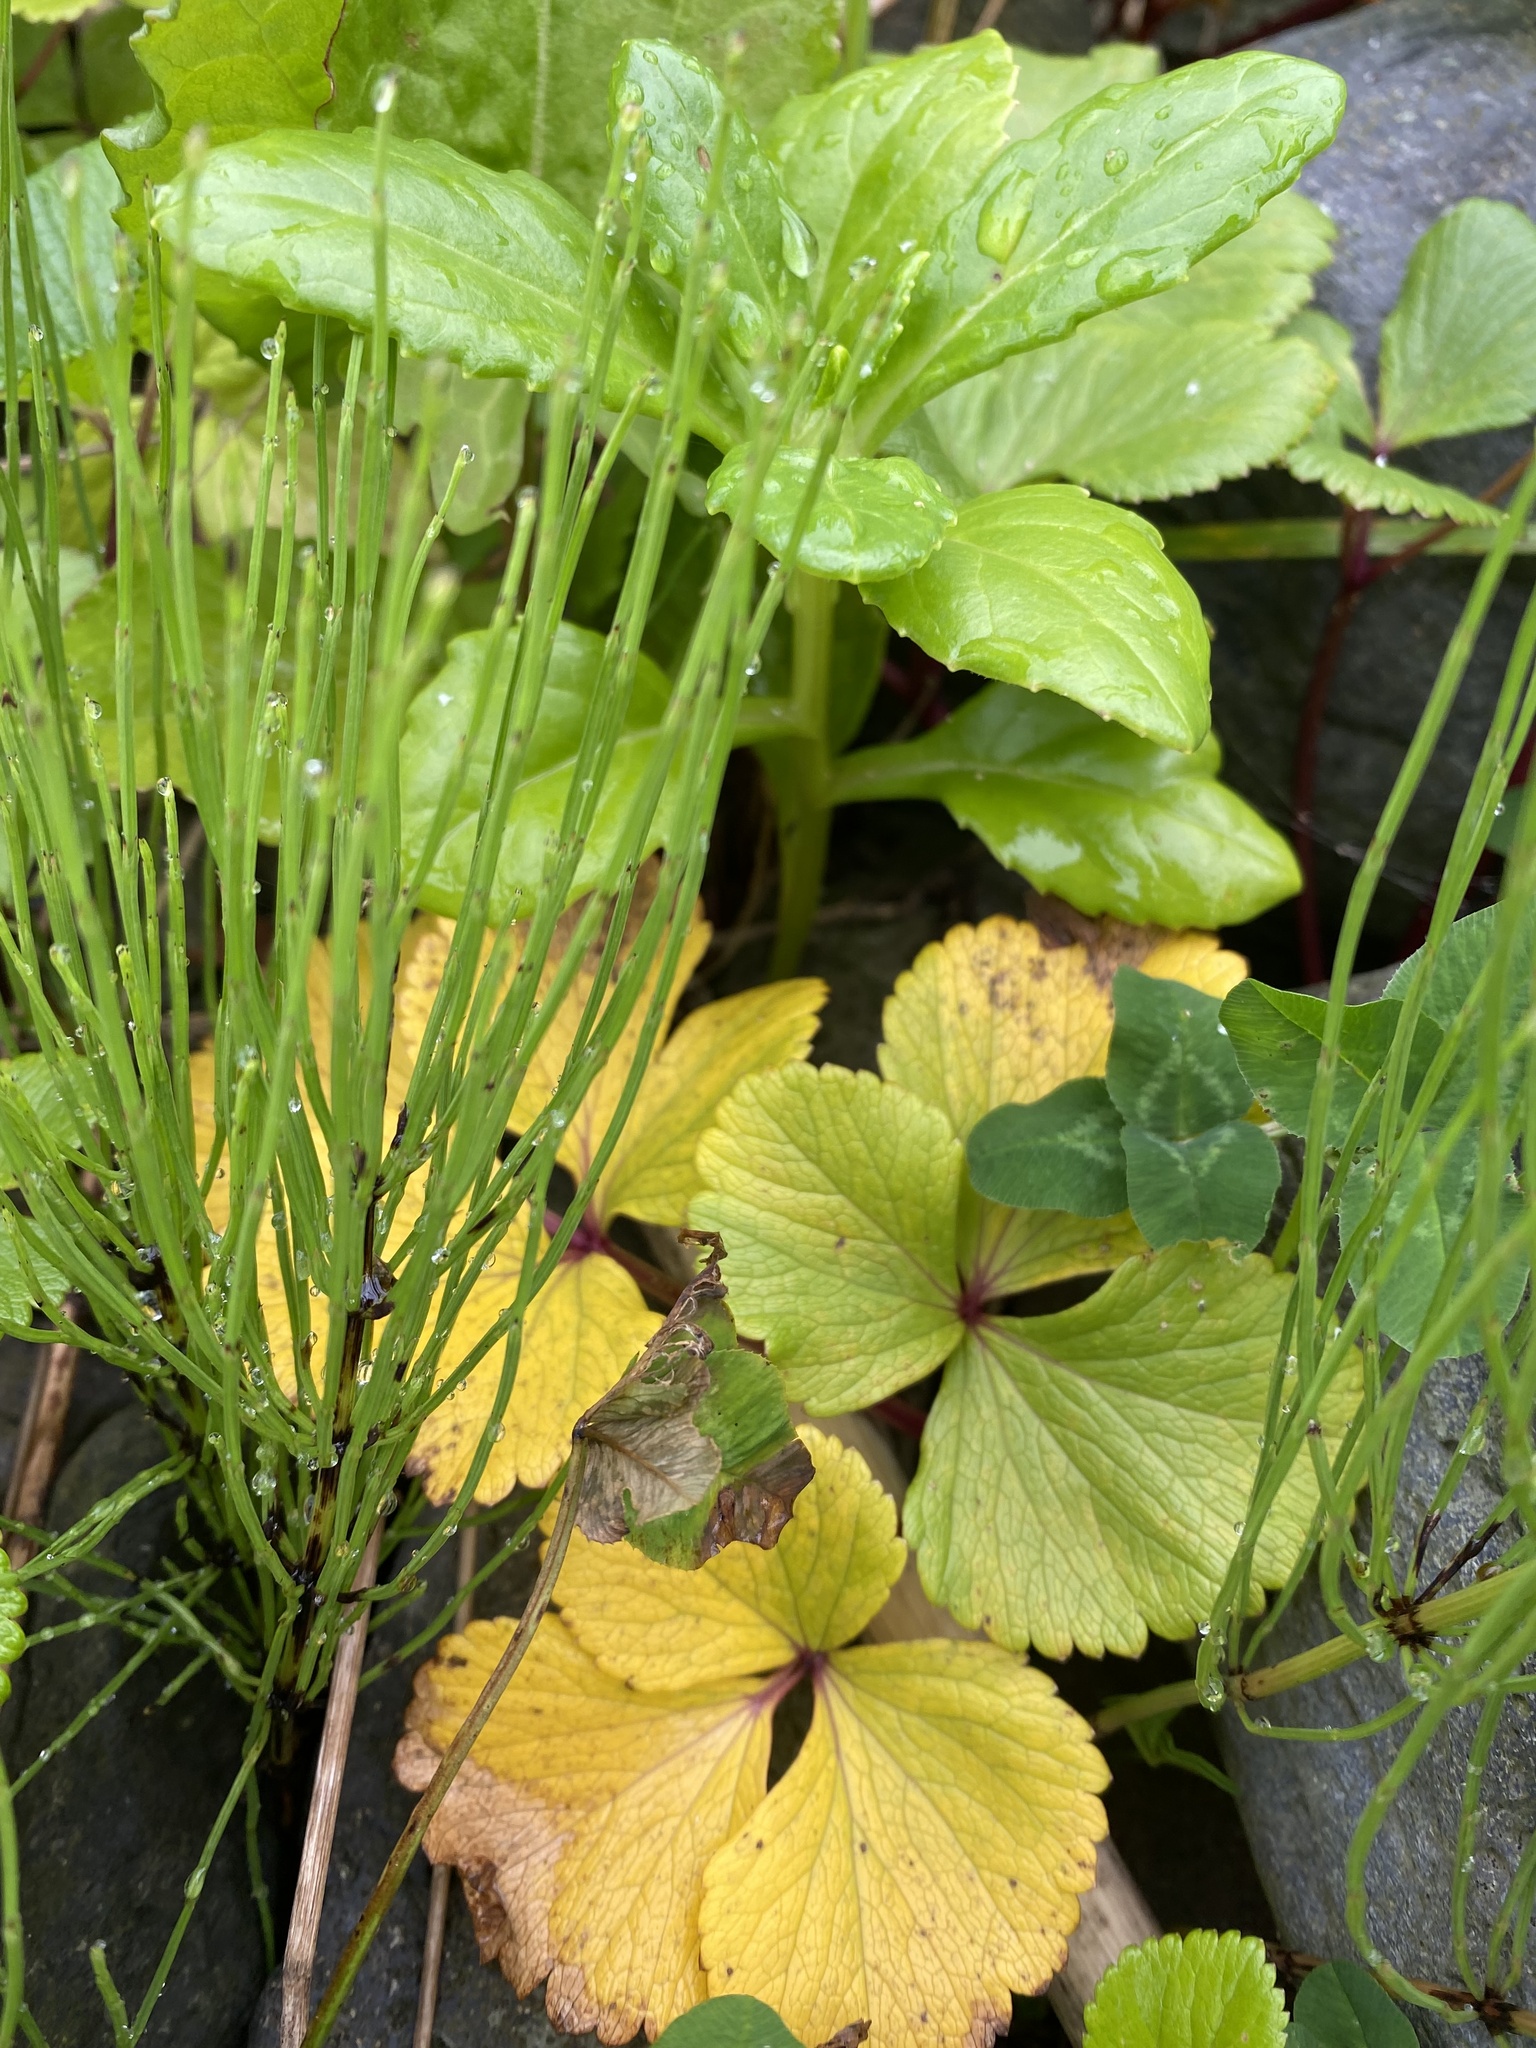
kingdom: Plantae
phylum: Tracheophyta
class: Polypodiopsida
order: Equisetales
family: Equisetaceae
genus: Equisetum
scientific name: Equisetum arvense
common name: Field horsetail
